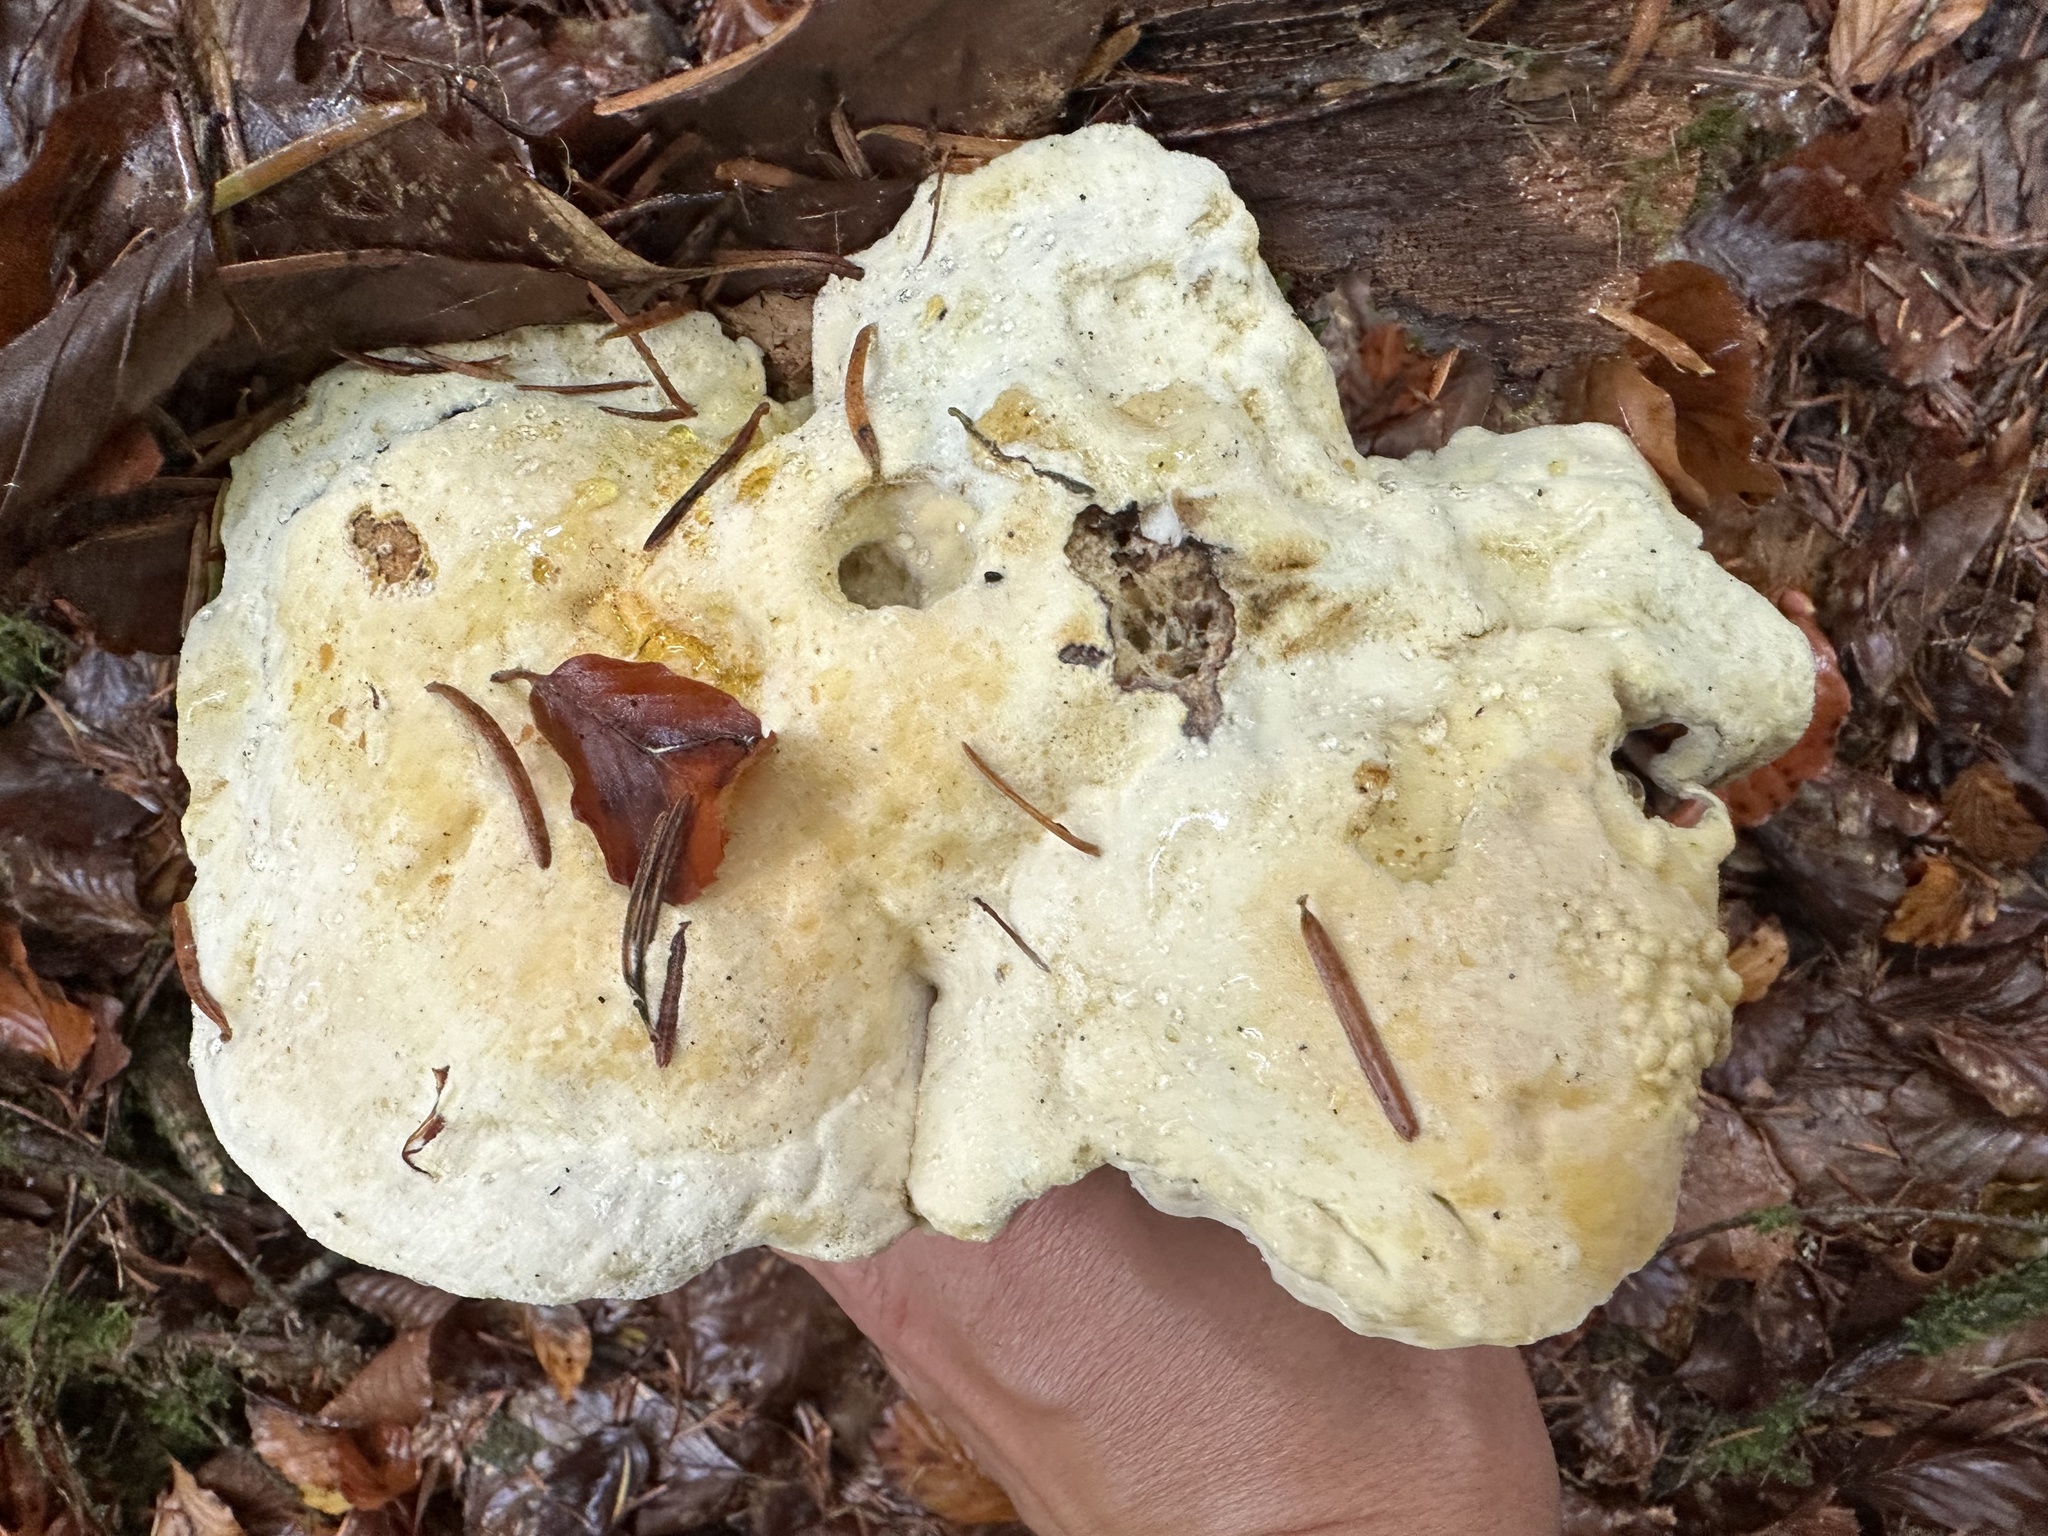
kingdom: Fungi
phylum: Ascomycota
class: Sordariomycetes
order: Hypocreales
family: Hypocreaceae
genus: Hypomyces
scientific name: Hypomyces chrysospermus
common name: Bolete mould
